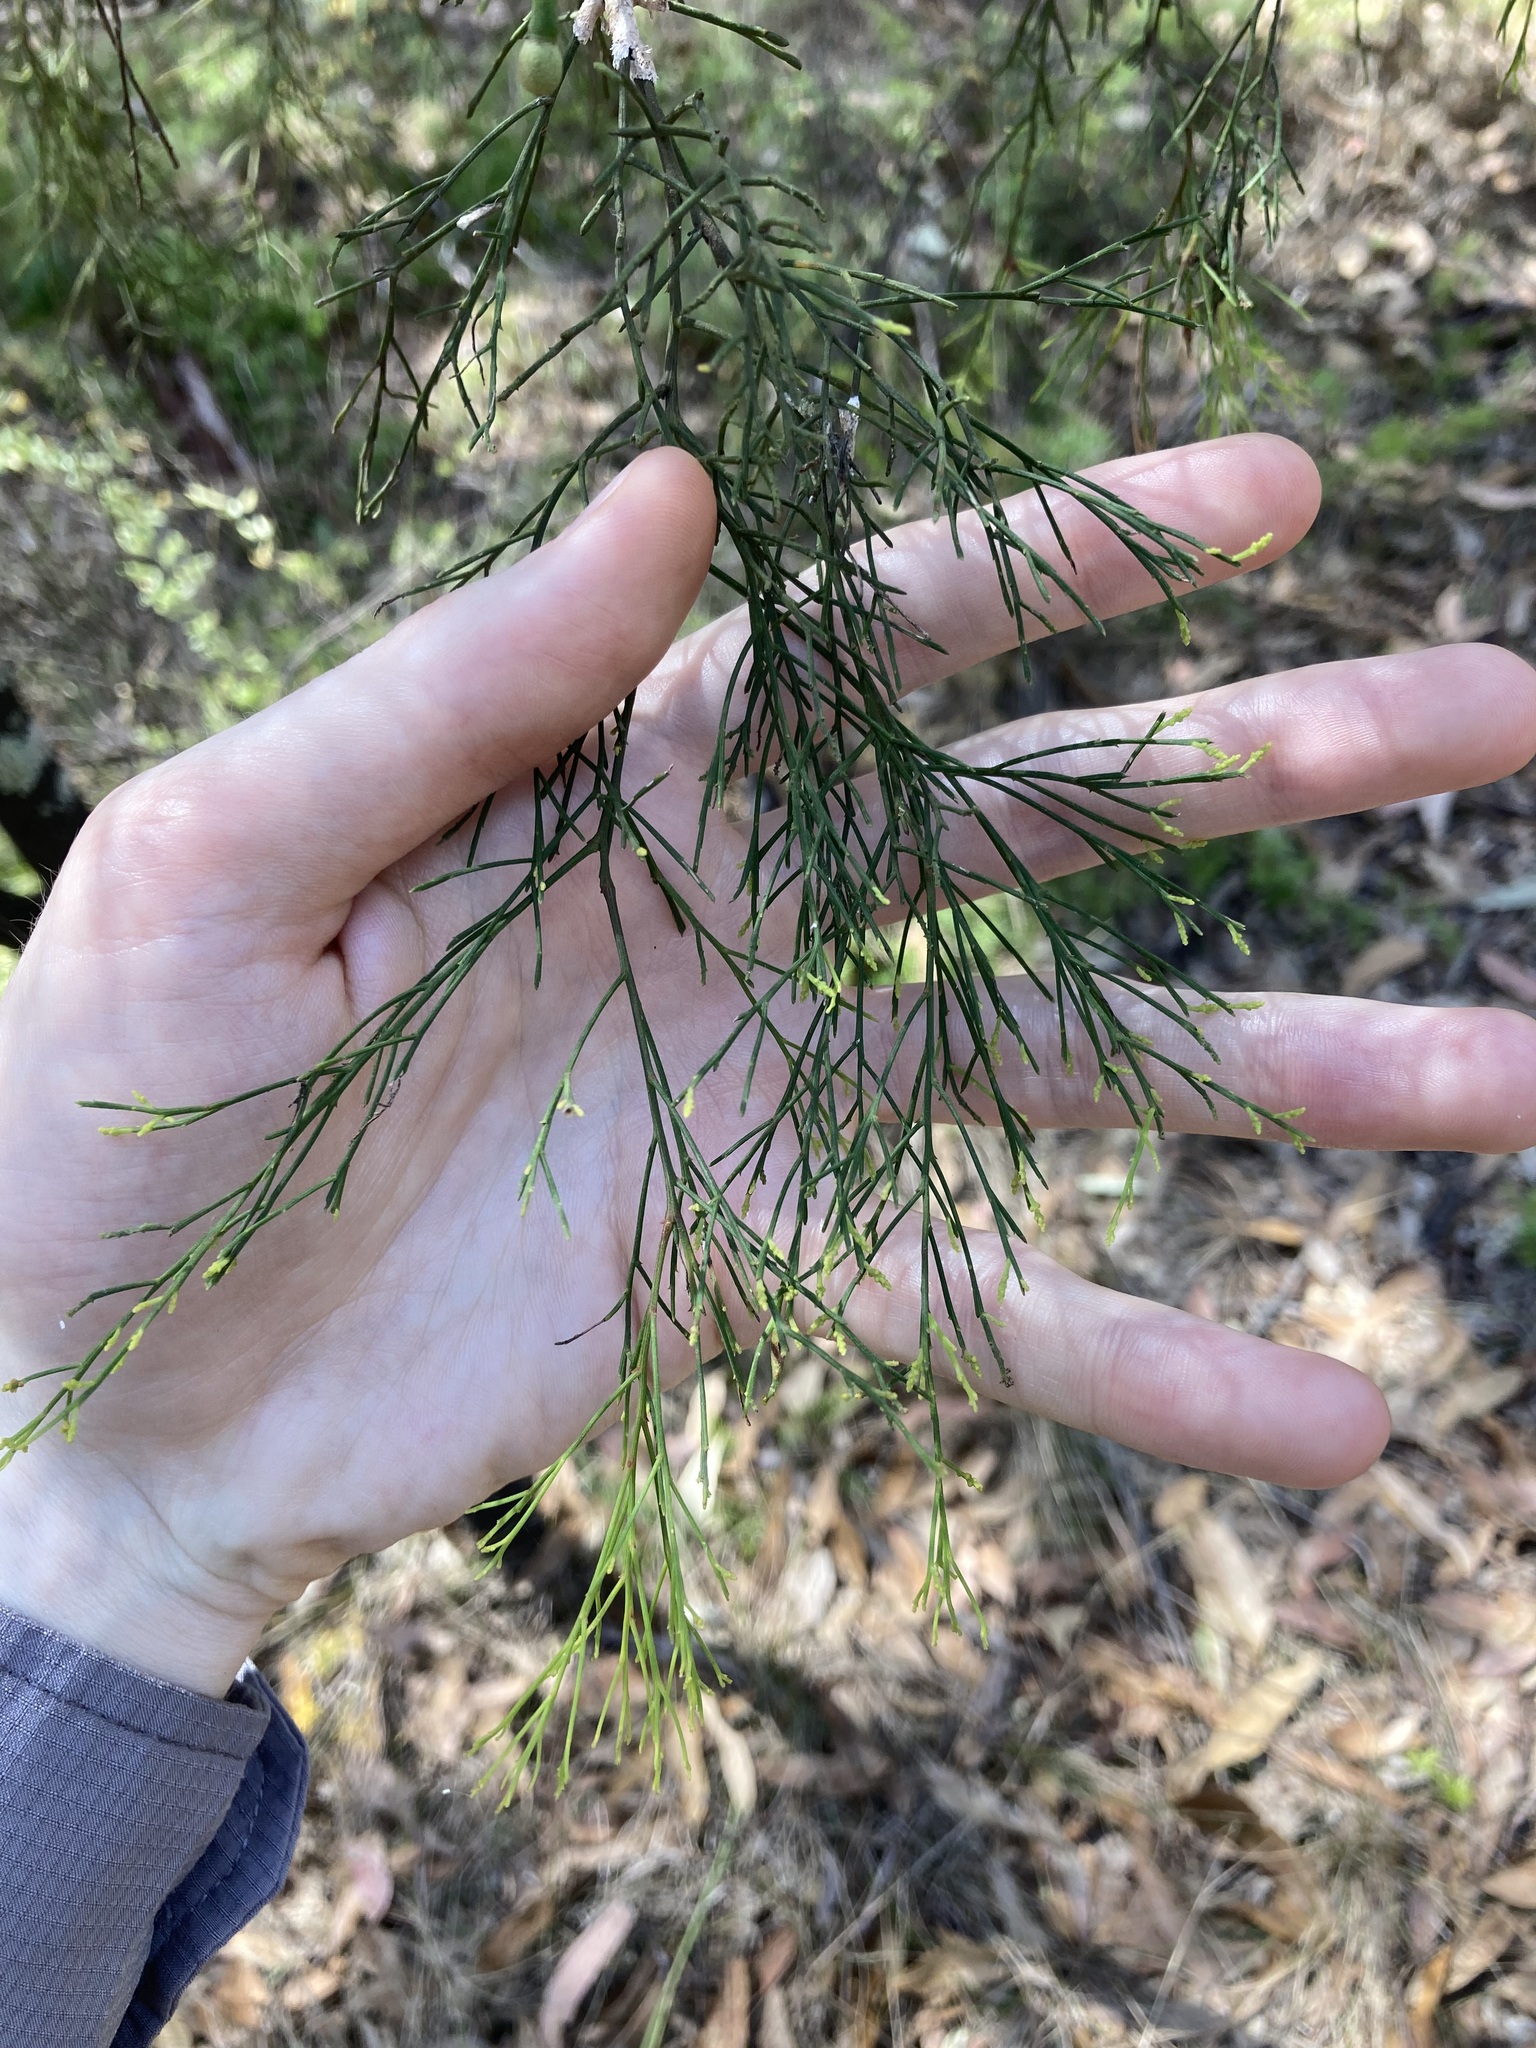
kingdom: Plantae
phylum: Tracheophyta
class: Magnoliopsida
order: Santalales
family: Santalaceae
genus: Exocarpos
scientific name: Exocarpos cupressiformis
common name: Cherry ballart
